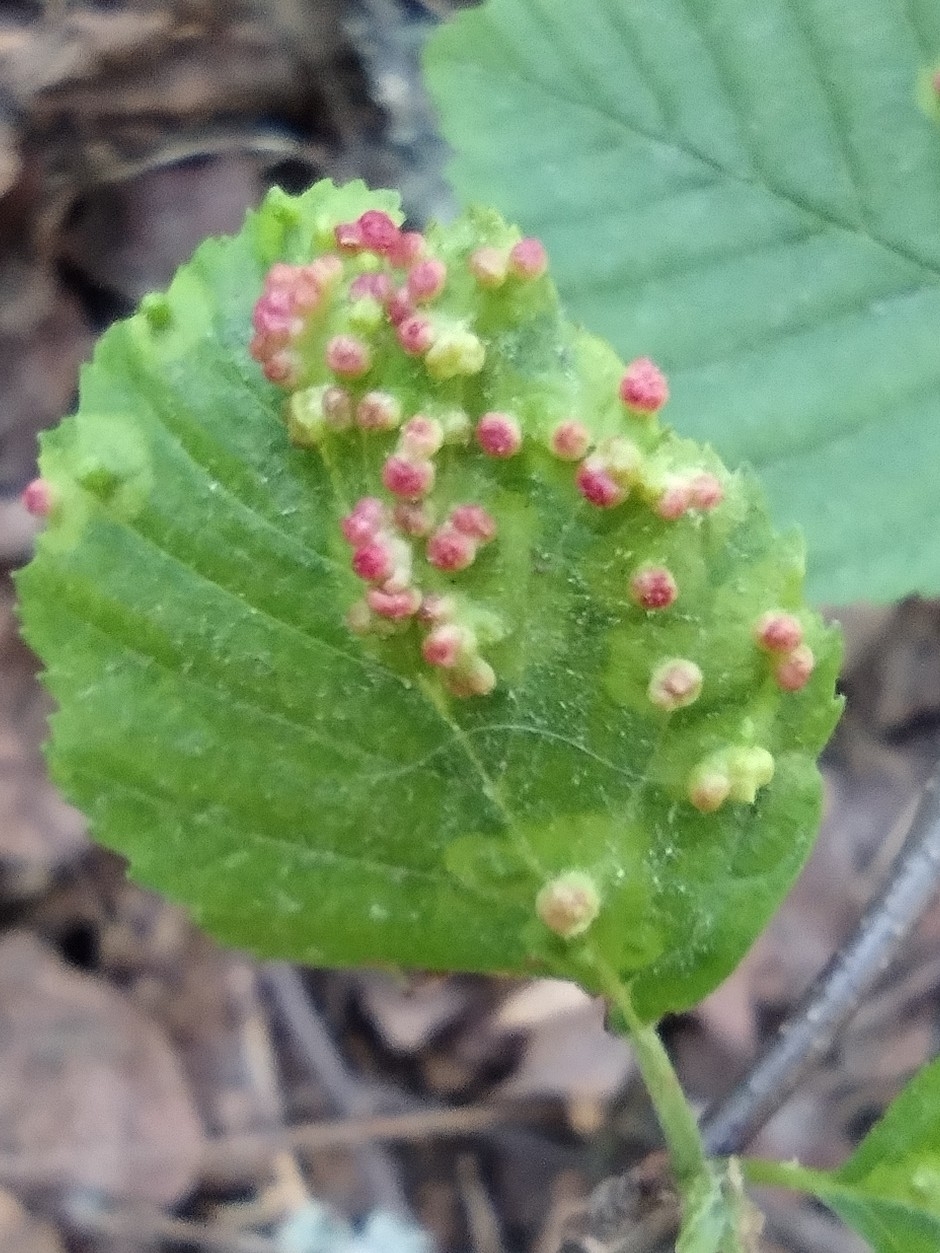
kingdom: Animalia
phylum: Arthropoda
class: Arachnida
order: Trombidiformes
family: Eriophyidae
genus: Eriophyes
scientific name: Eriophyes laevis
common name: Alder leaf gall mite
